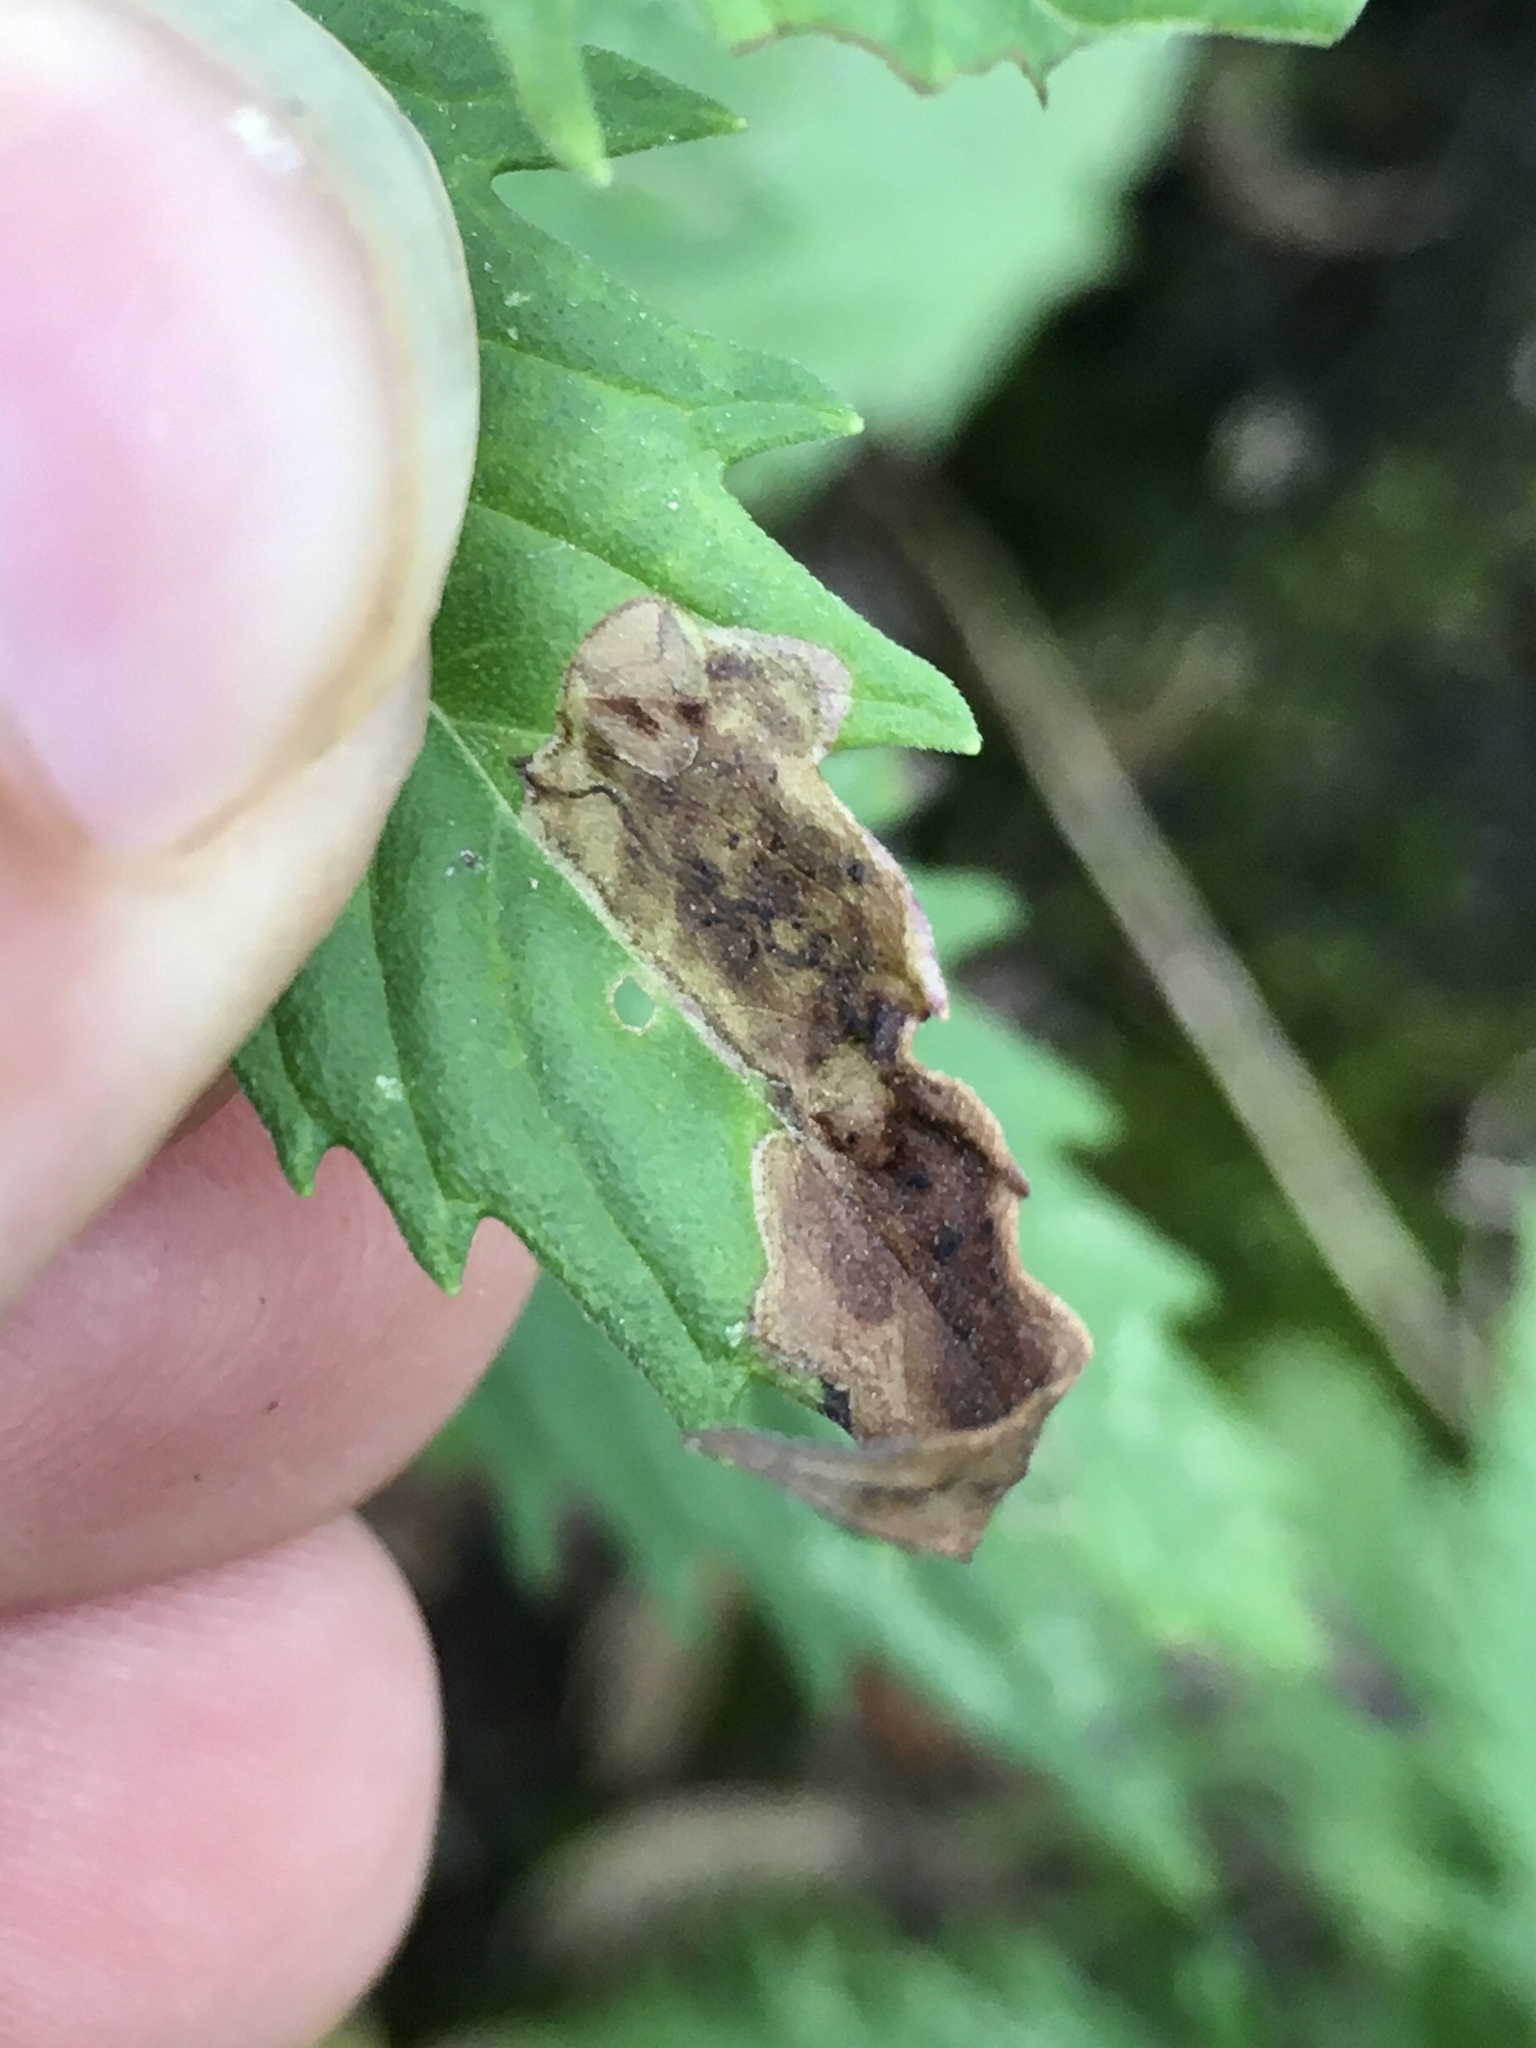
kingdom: Animalia
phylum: Arthropoda
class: Insecta
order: Diptera
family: Agromyzidae
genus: Calycomyza
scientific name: Calycomyza menthae
